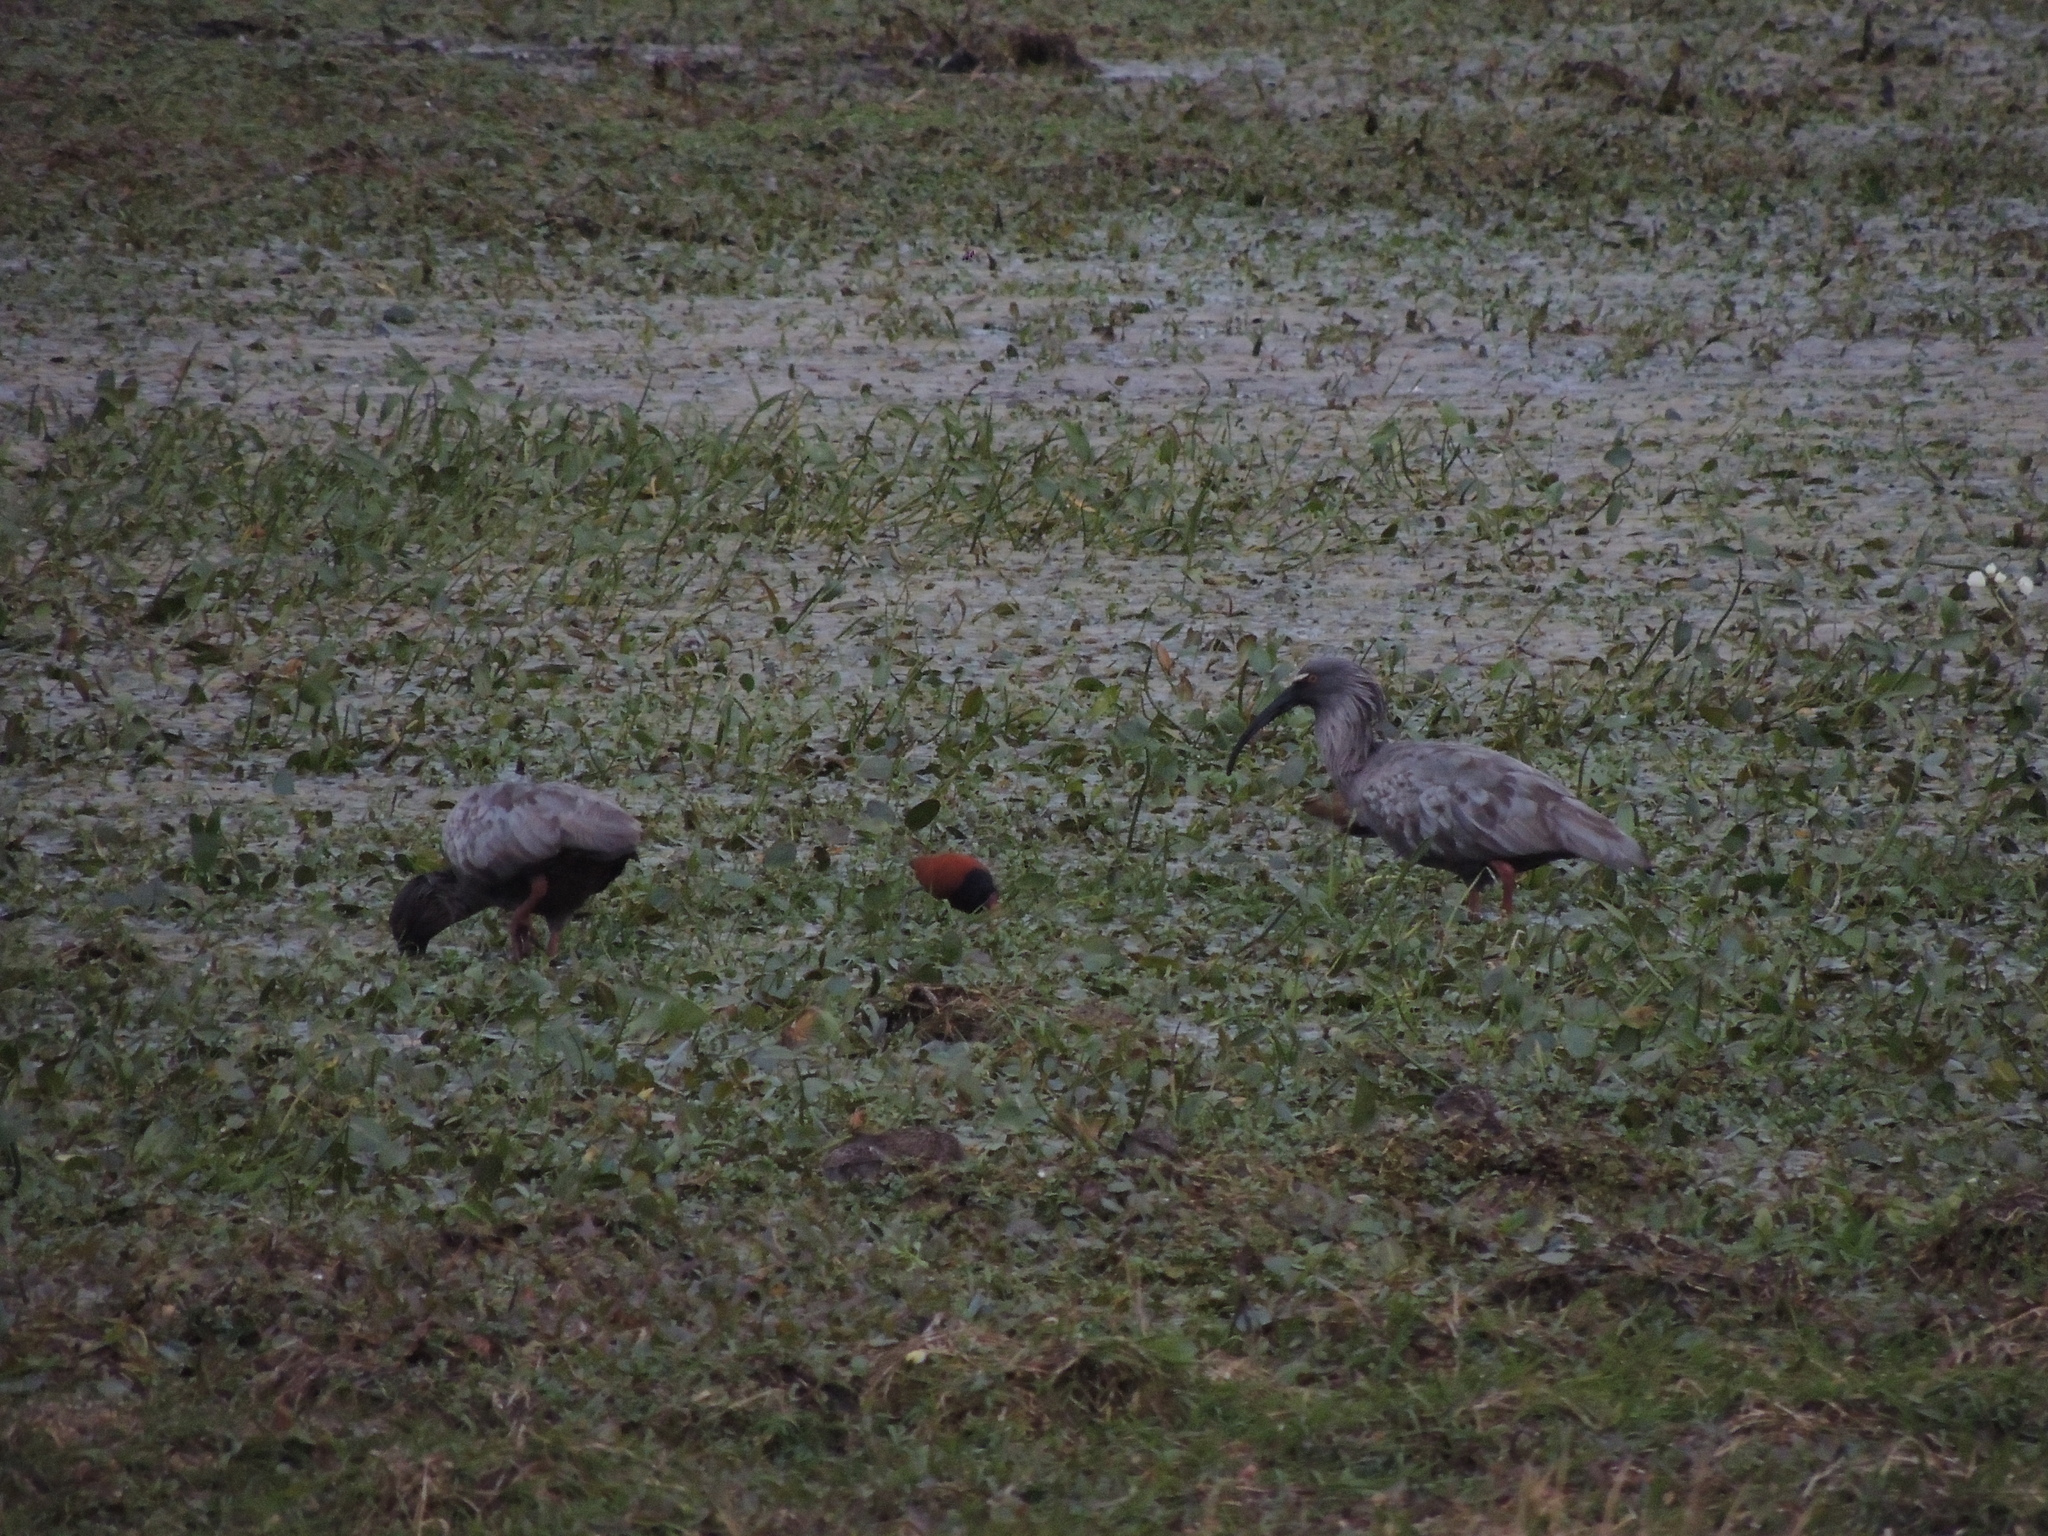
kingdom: Animalia
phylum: Chordata
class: Aves
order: Pelecaniformes
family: Threskiornithidae
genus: Theristicus
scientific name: Theristicus caerulescens
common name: Plumbeous ibis
